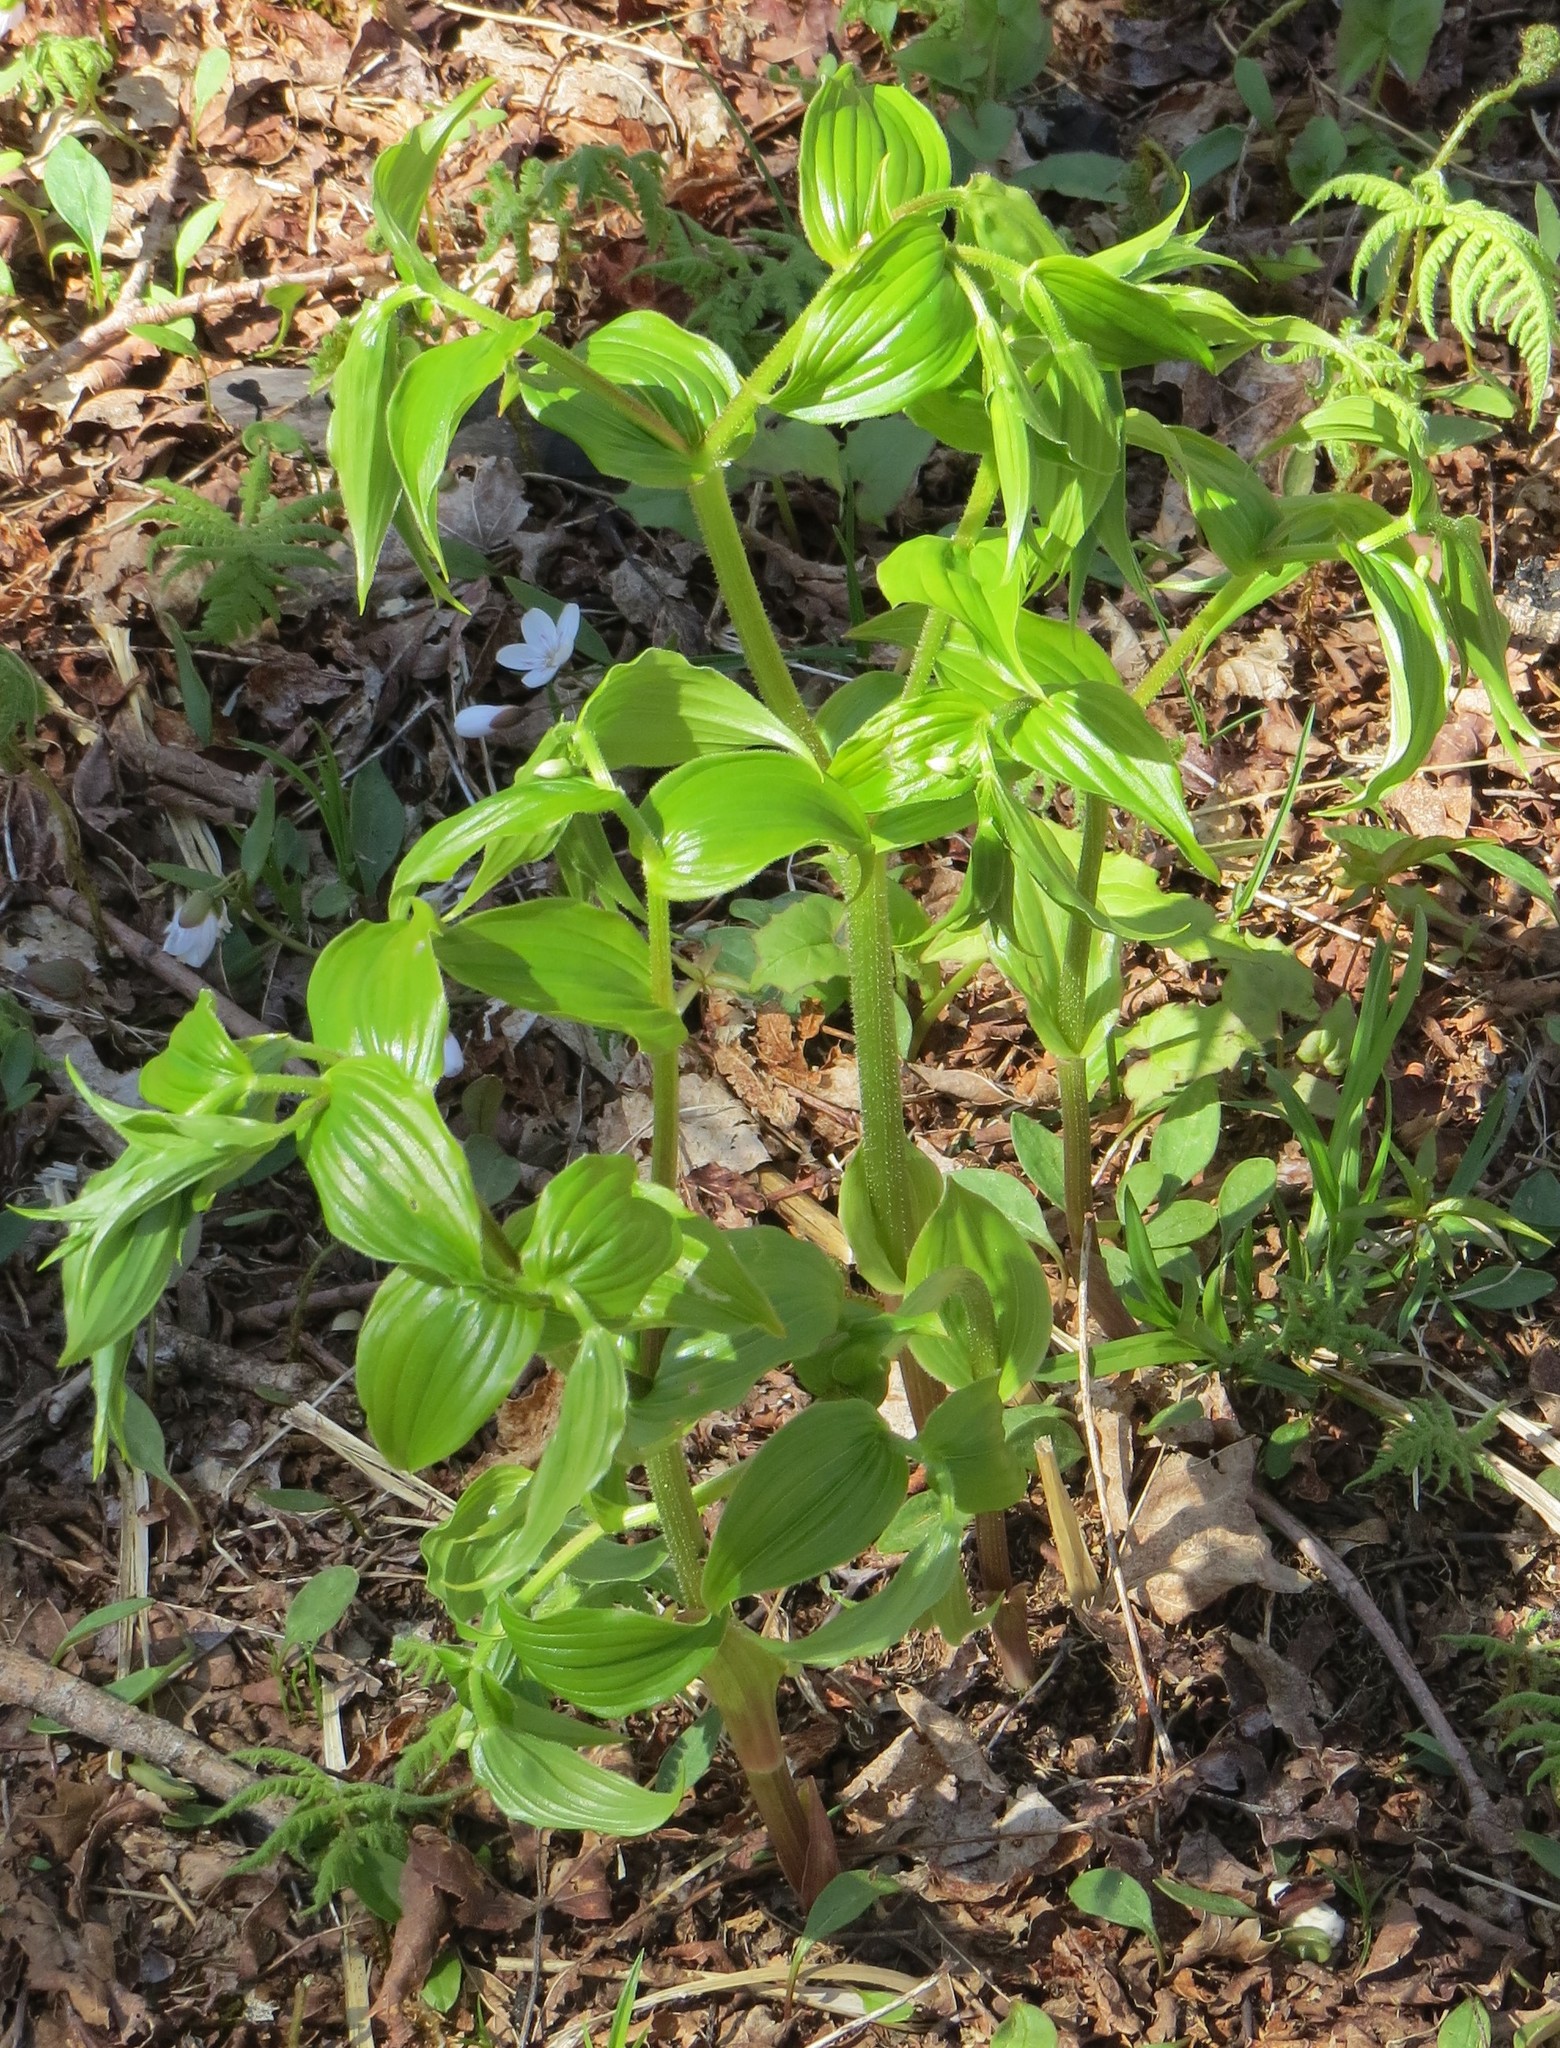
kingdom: Plantae
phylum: Tracheophyta
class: Liliopsida
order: Liliales
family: Liliaceae
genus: Streptopus
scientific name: Streptopus lanceolatus
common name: Rose mandarin
